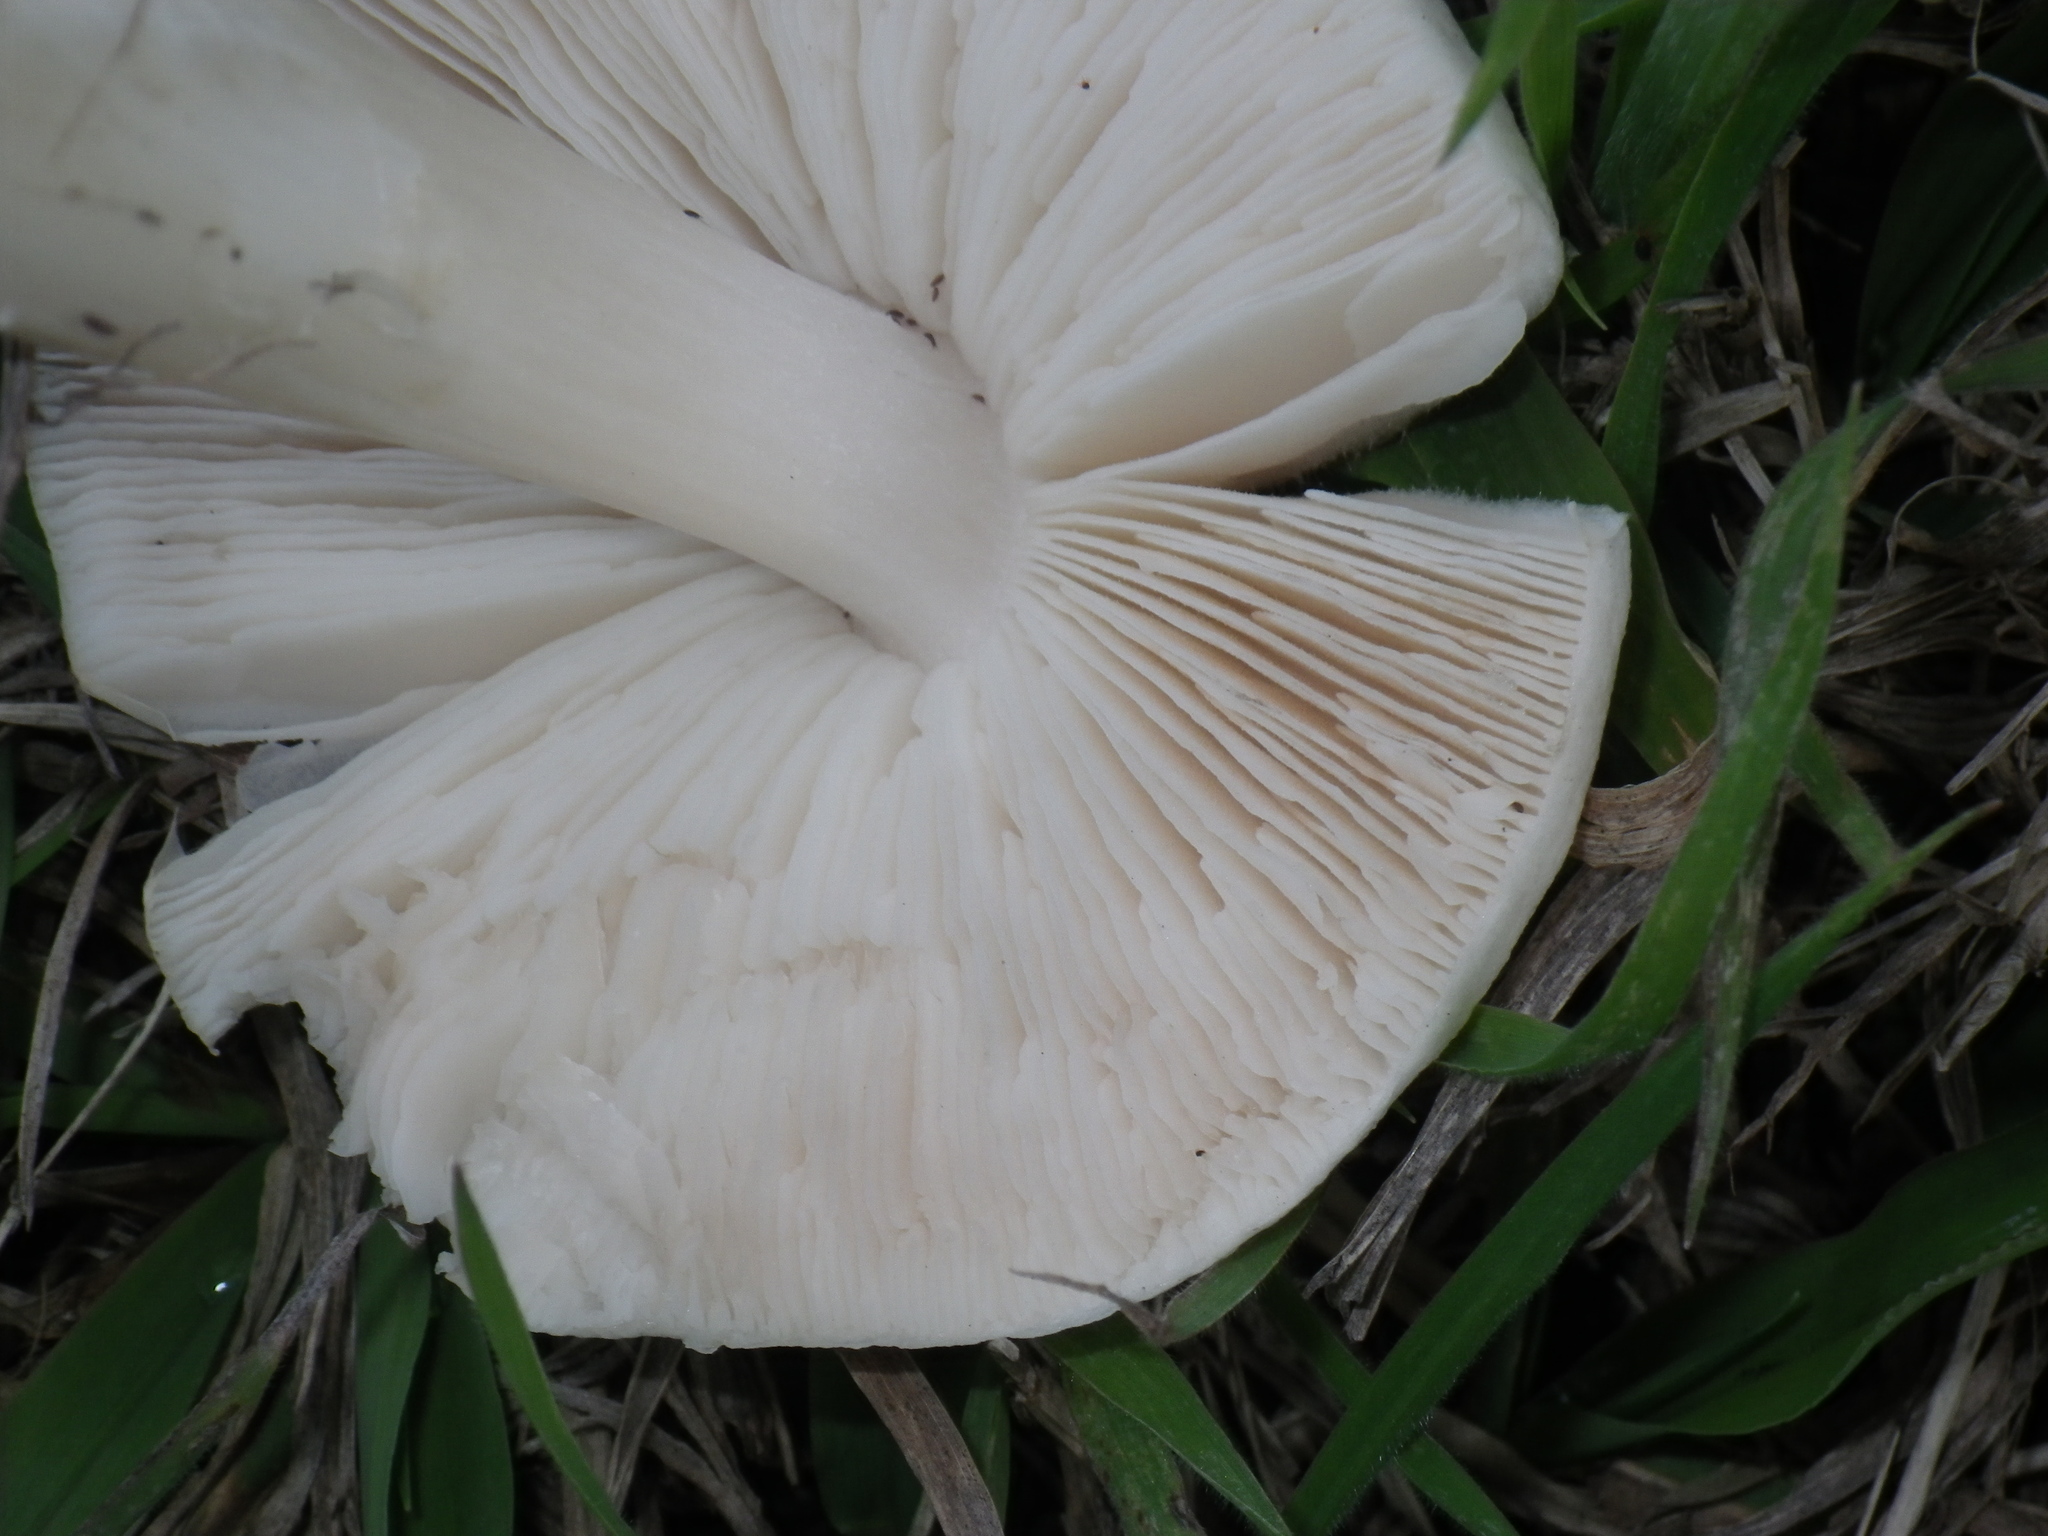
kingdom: Fungi
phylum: Basidiomycota
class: Agaricomycetes
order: Agaricales
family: Pluteaceae
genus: Volvopluteus
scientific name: Volvopluteus gloiocephalus
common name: Stubble rosegill
